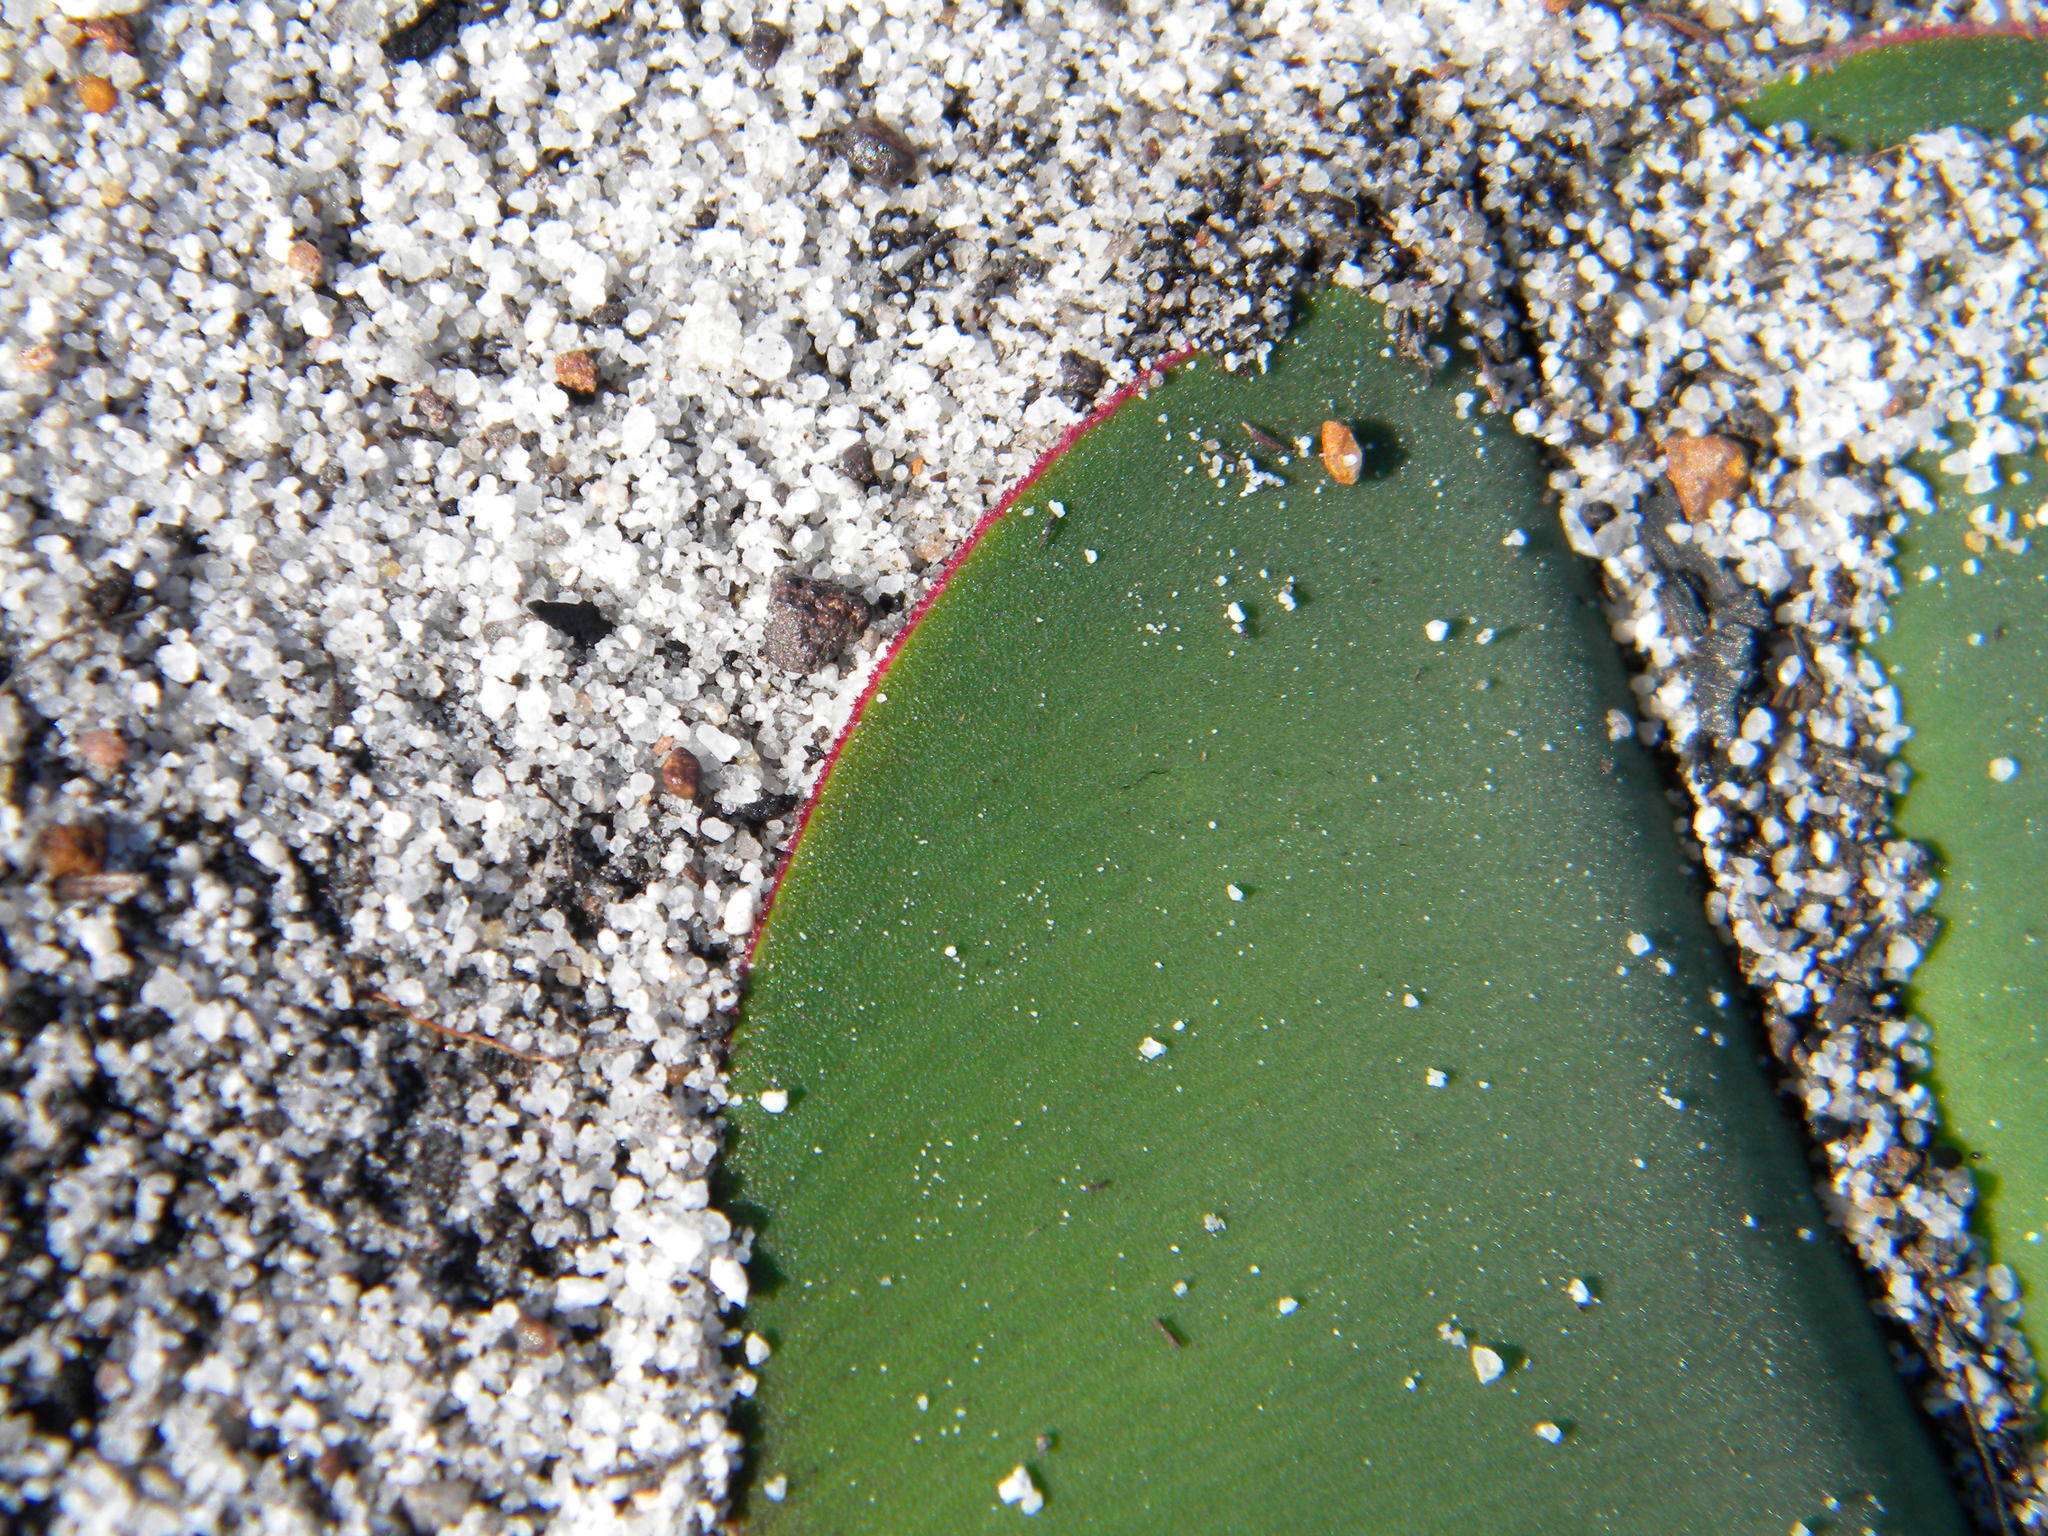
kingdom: Plantae
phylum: Tracheophyta
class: Liliopsida
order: Asparagales
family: Amaryllidaceae
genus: Haemanthus
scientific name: Haemanthus sanguineus
